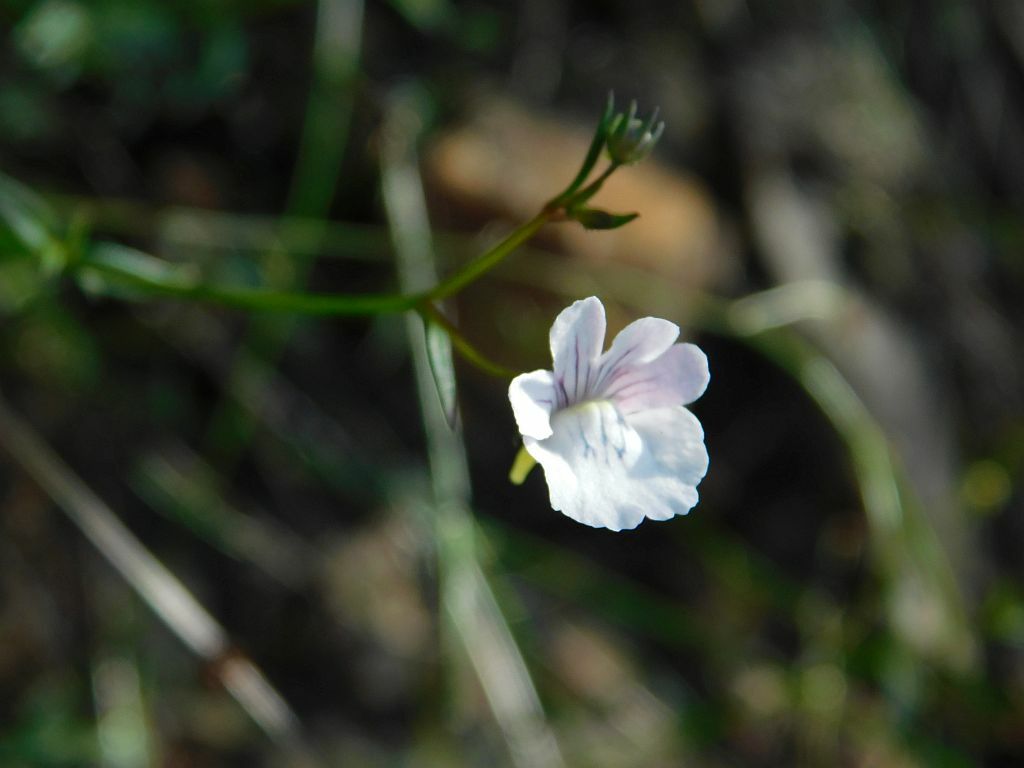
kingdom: Plantae
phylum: Tracheophyta
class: Magnoliopsida
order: Lamiales
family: Scrophulariaceae
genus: Nemesia
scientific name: Nemesia diffusa
